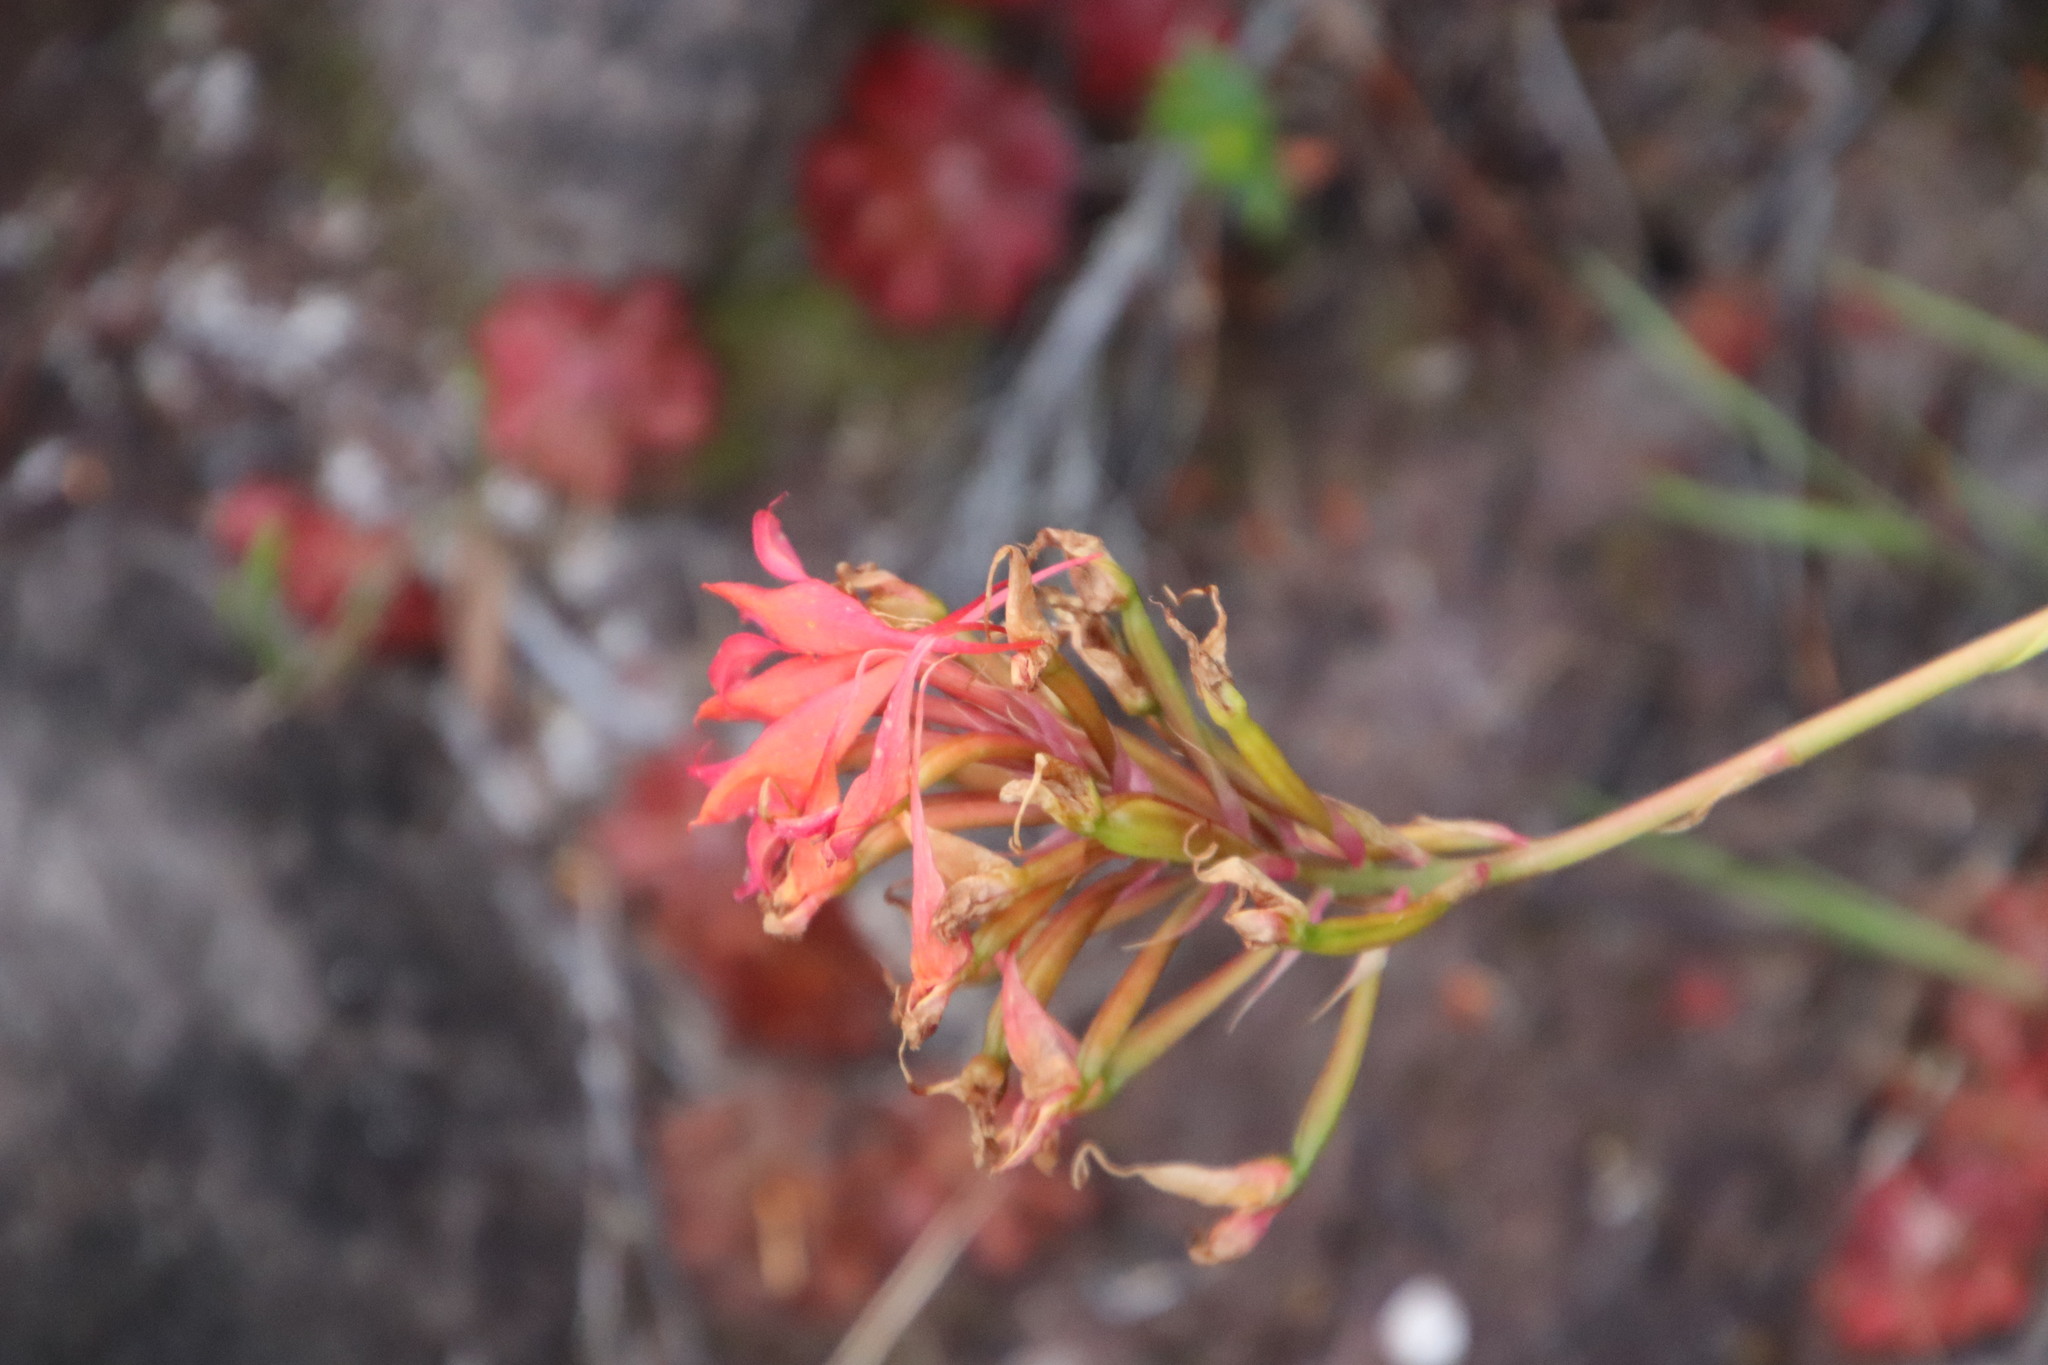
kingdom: Plantae
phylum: Tracheophyta
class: Liliopsida
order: Asparagales
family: Orchidaceae
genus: Disa
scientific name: Disa ferruginea
